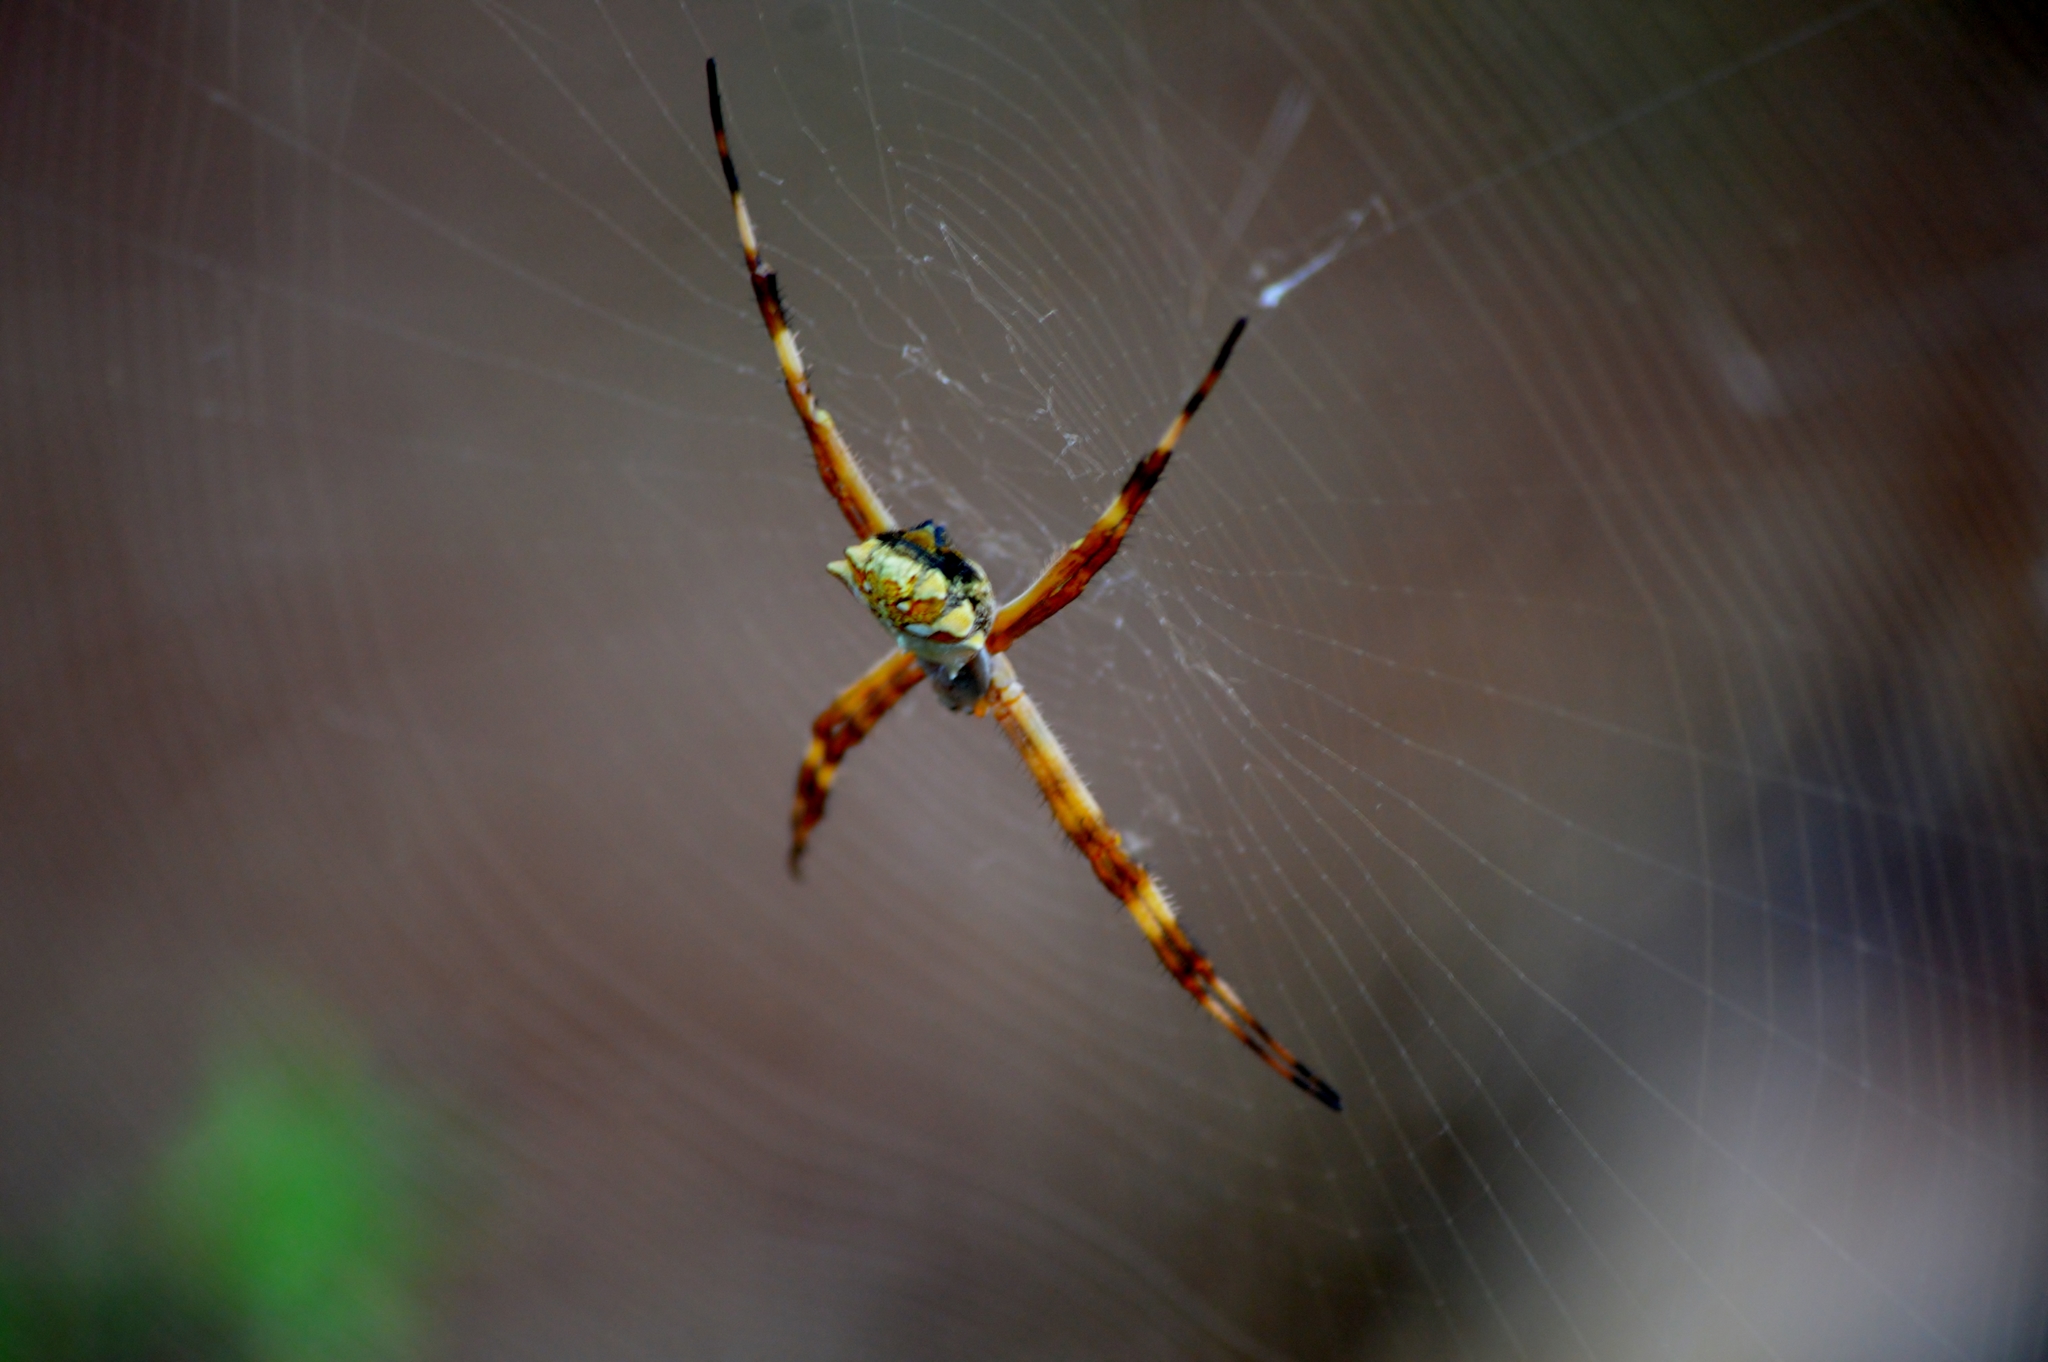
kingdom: Animalia
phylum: Arthropoda
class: Arachnida
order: Araneae
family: Araneidae
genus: Argiope
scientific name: Argiope argentata
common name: Orb weavers
